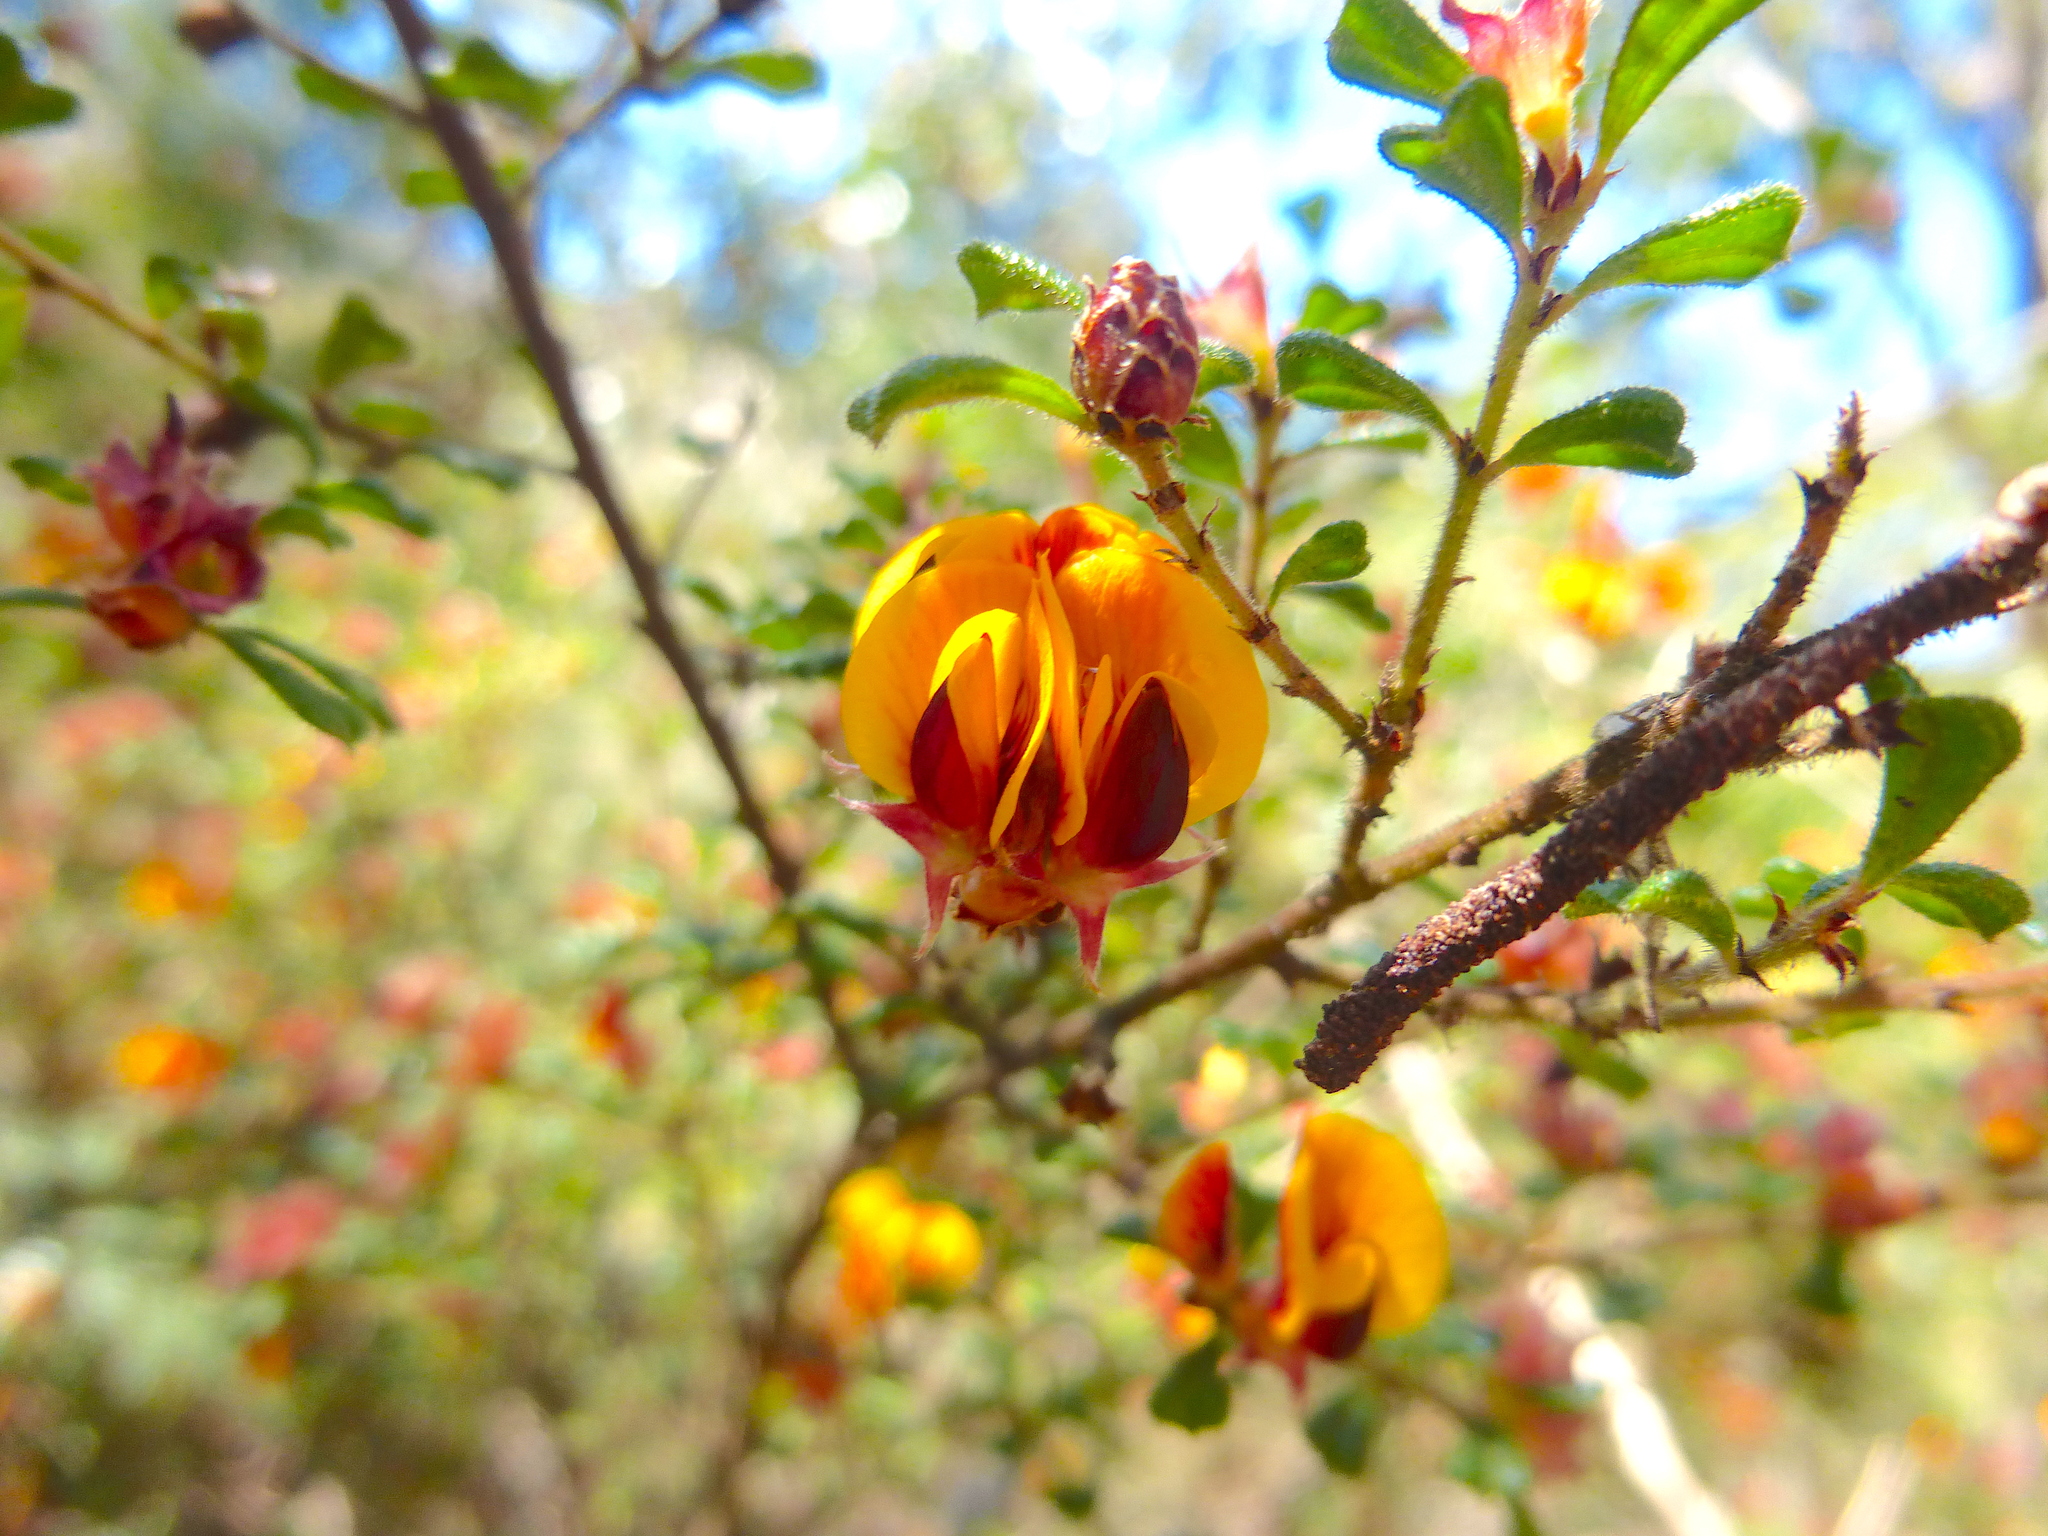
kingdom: Plantae
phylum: Tracheophyta
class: Magnoliopsida
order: Fabales
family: Fabaceae
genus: Pultenaea
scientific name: Pultenaea scabra
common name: Rough bush-pea
